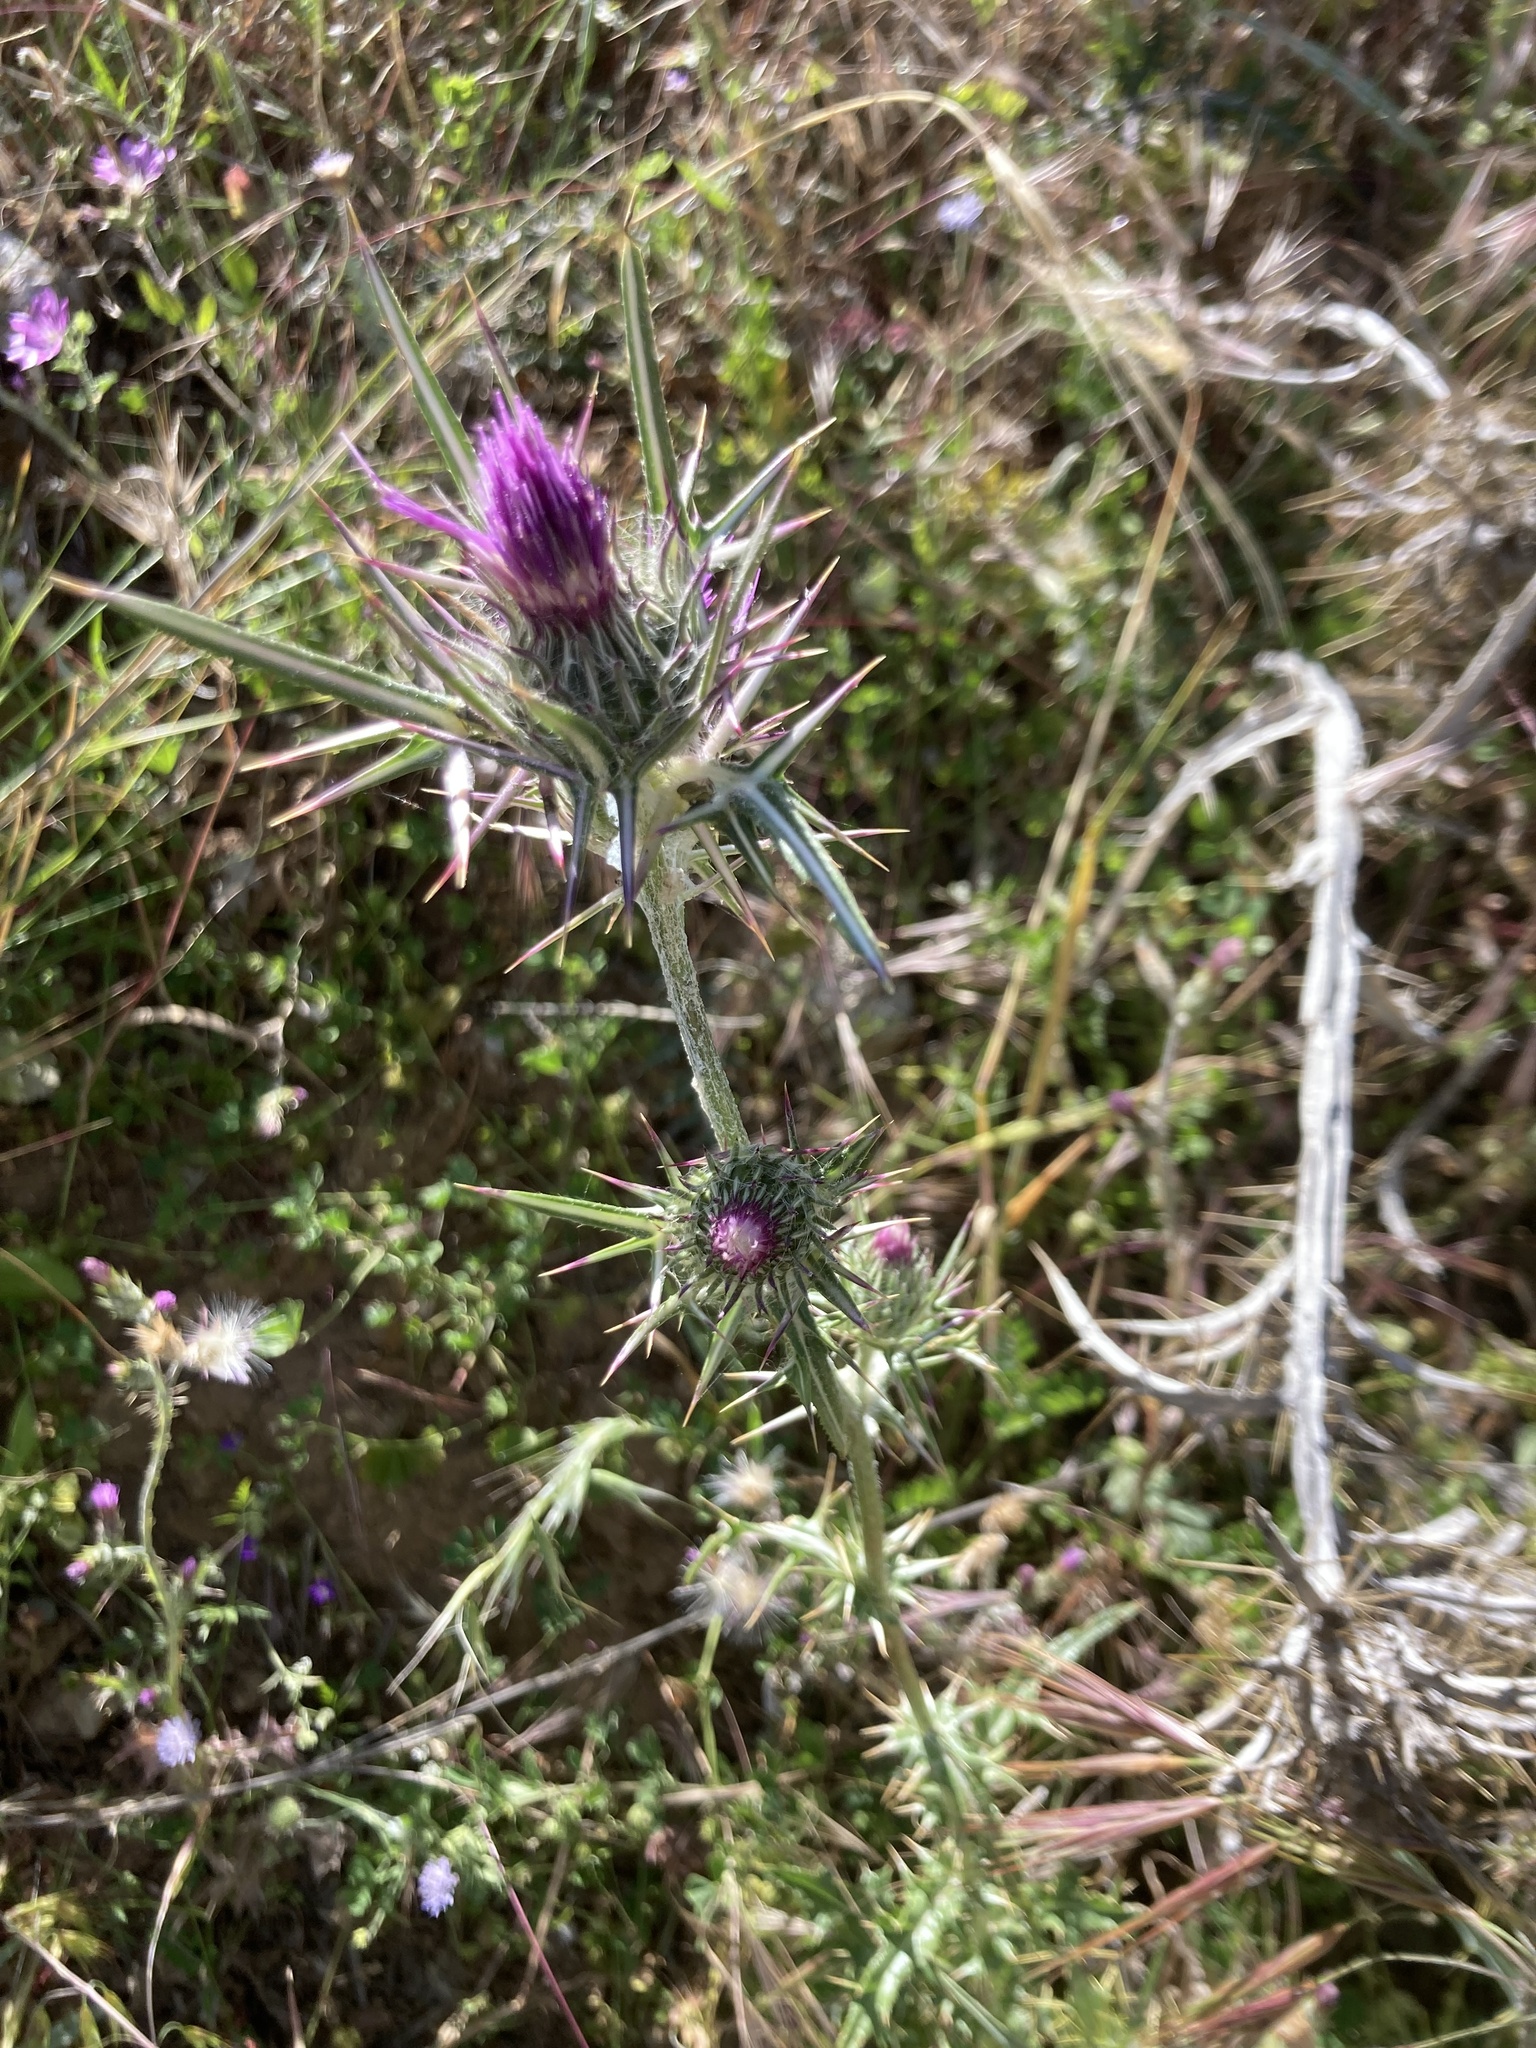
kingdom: Plantae
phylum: Tracheophyta
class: Magnoliopsida
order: Asterales
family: Asteraceae
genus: Notobasis
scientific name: Notobasis syriaca
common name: Syrian thistle
